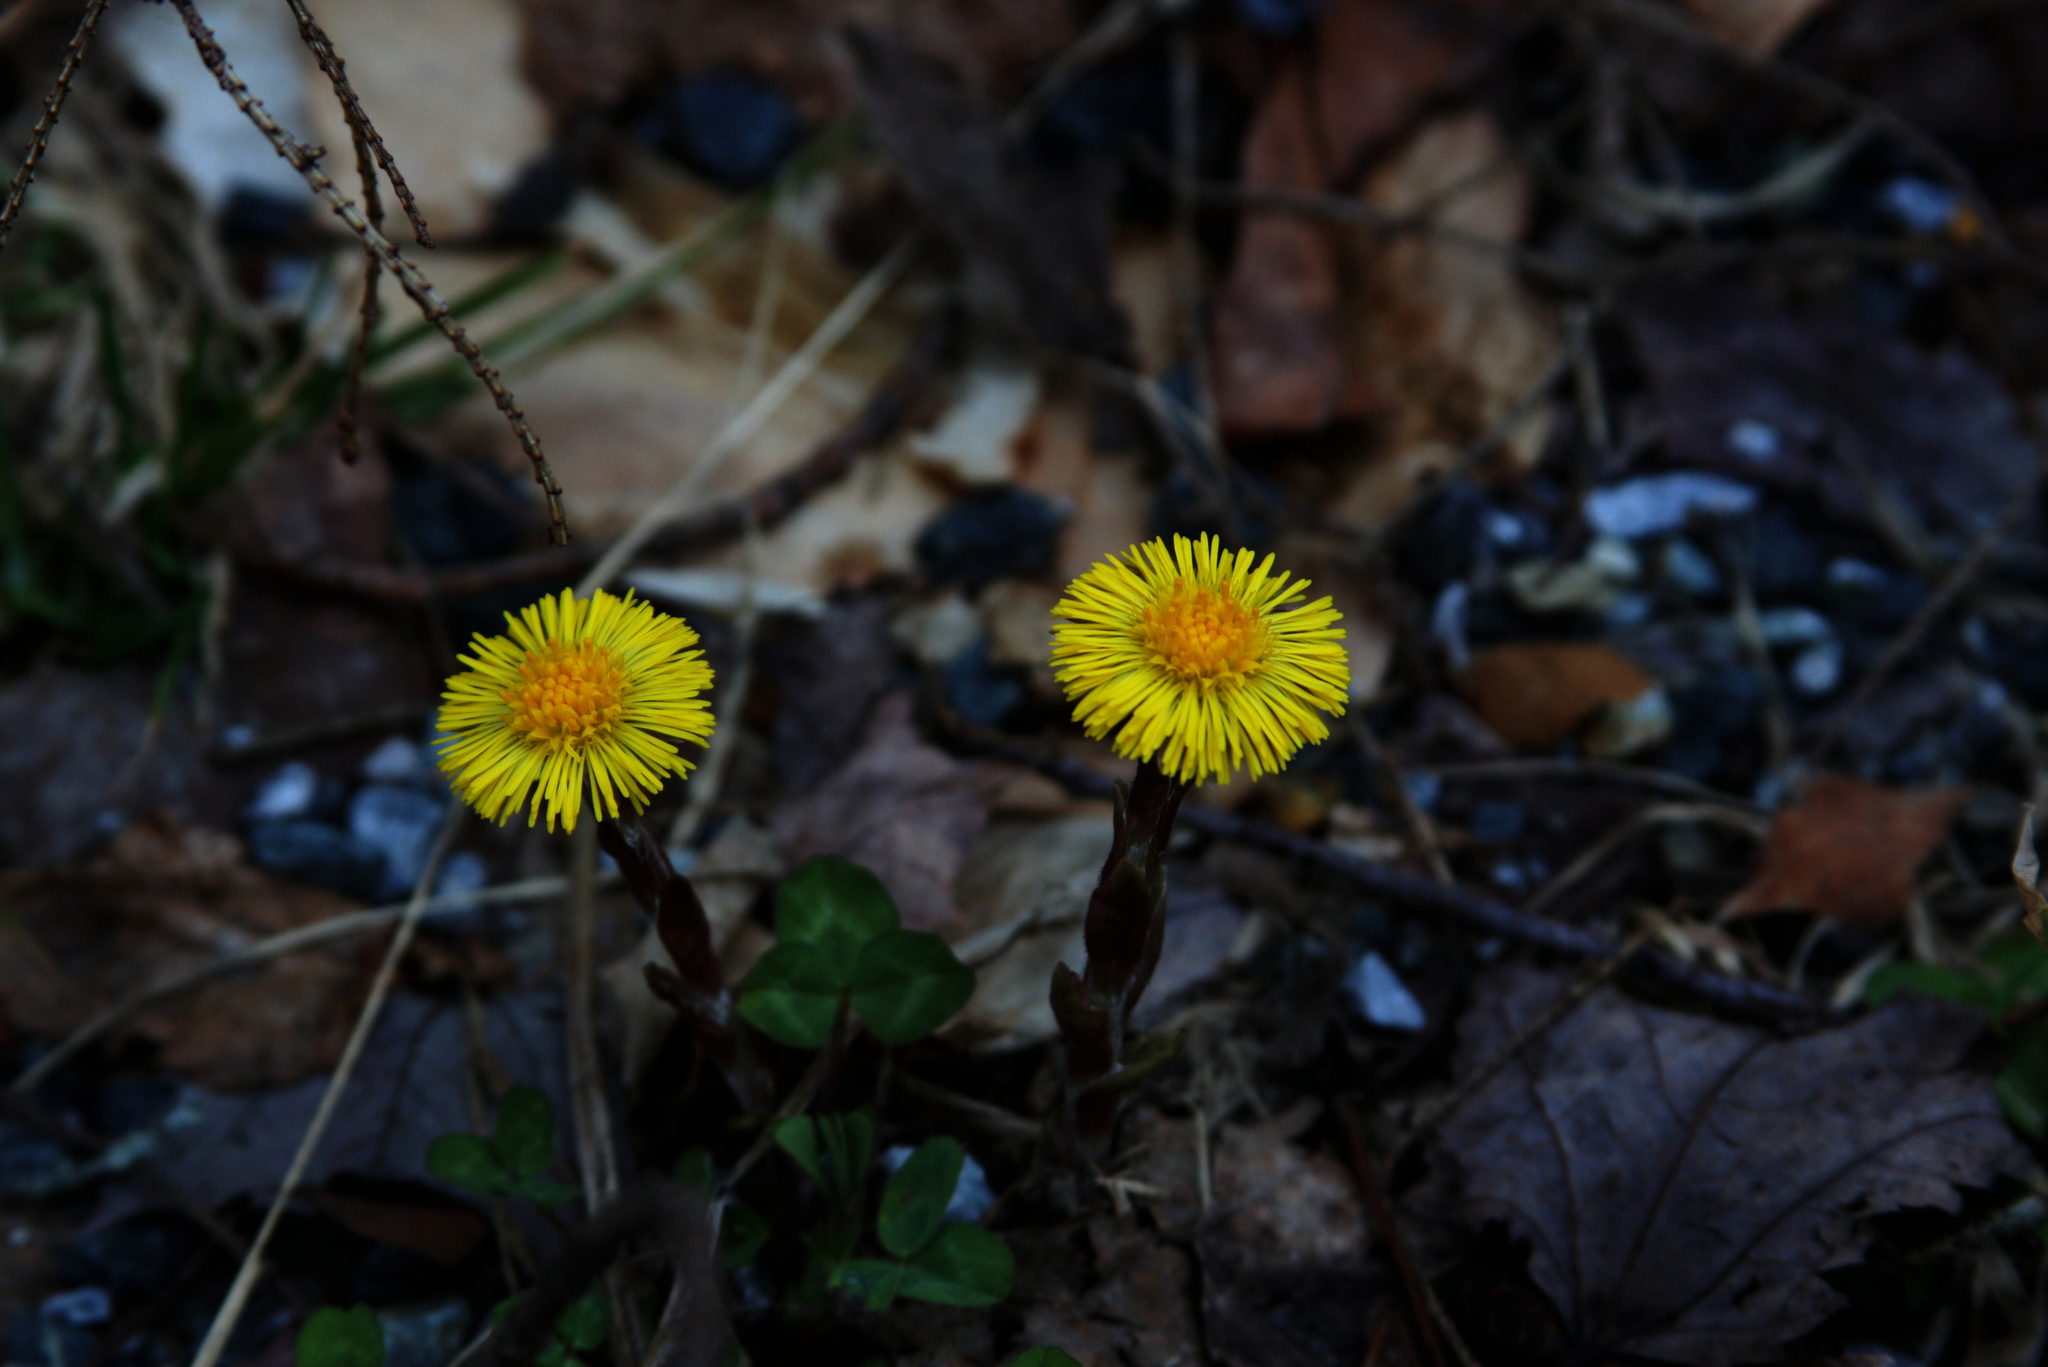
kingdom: Plantae
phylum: Tracheophyta
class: Magnoliopsida
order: Asterales
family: Asteraceae
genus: Tussilago
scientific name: Tussilago farfara
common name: Coltsfoot
